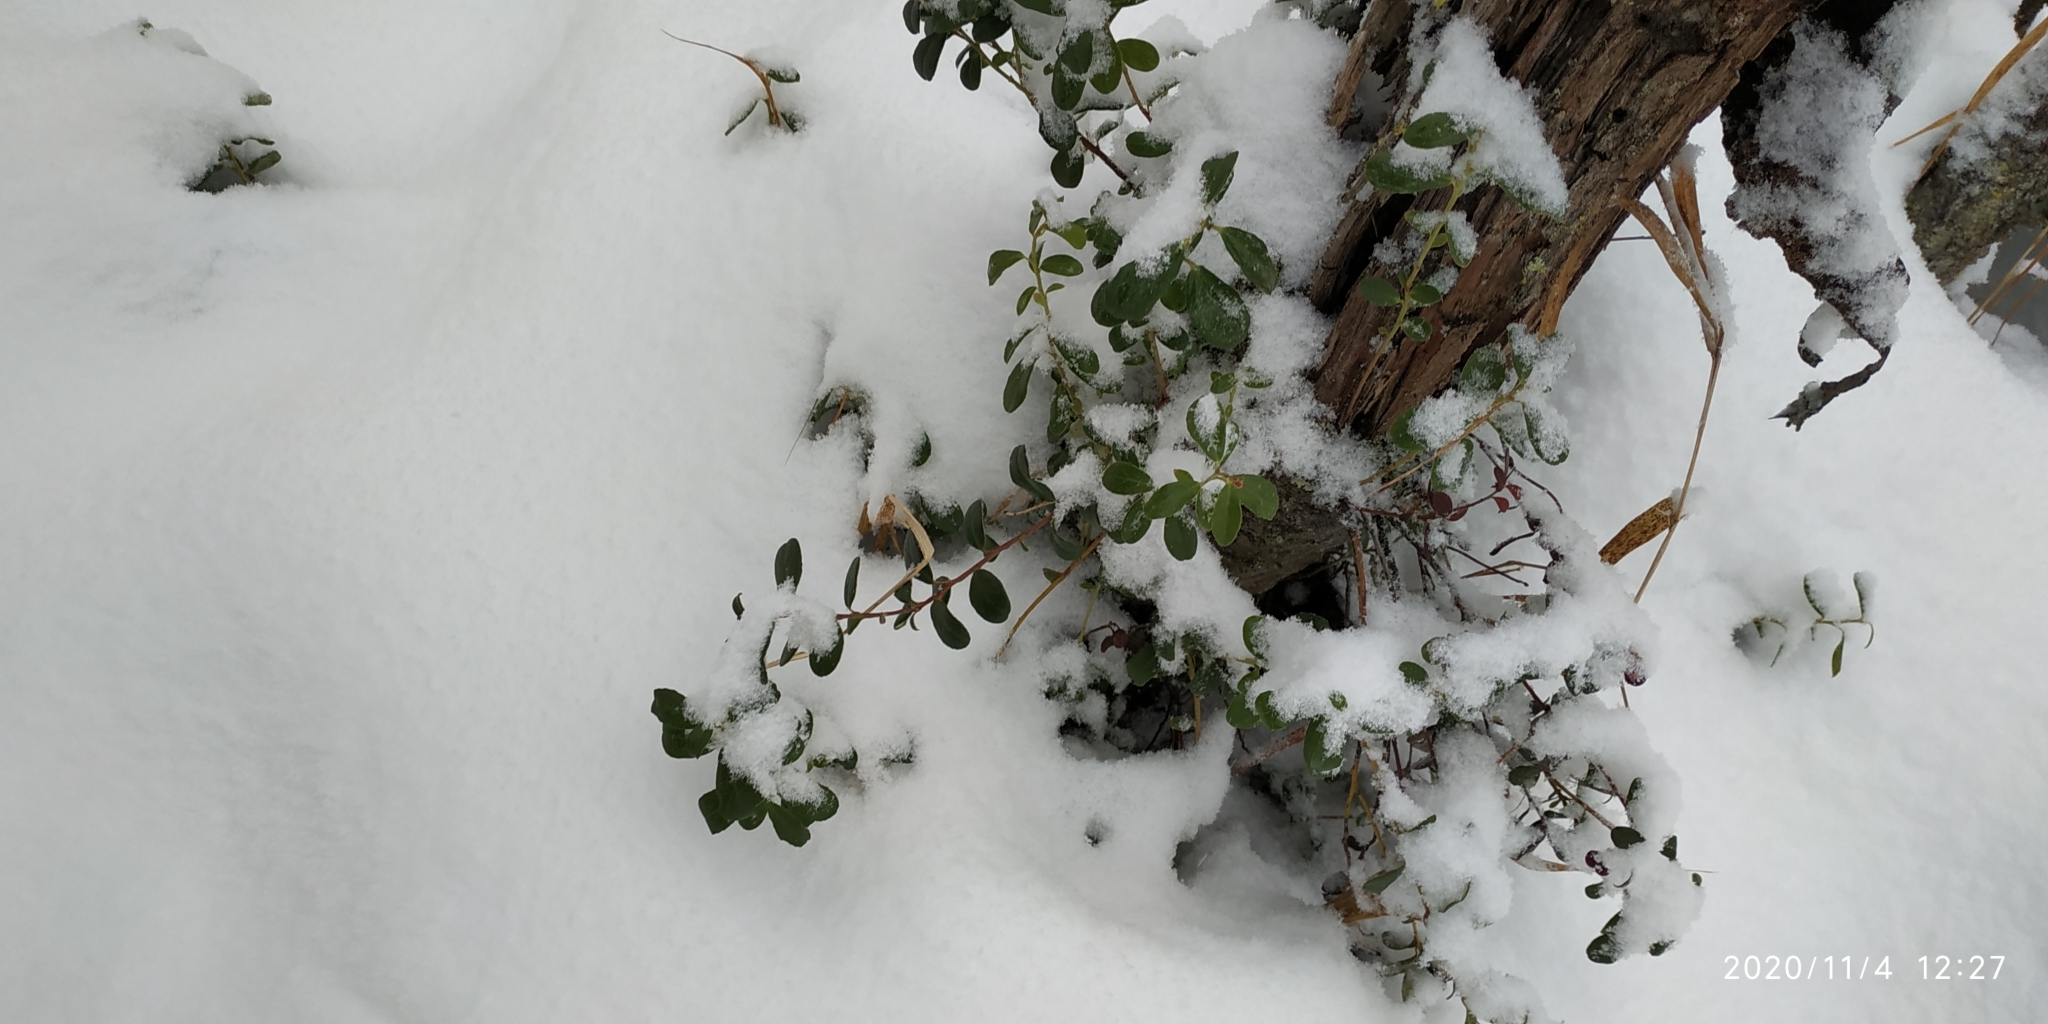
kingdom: Plantae
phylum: Tracheophyta
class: Magnoliopsida
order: Ericales
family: Ericaceae
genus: Vaccinium
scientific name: Vaccinium vitis-idaea
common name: Cowberry
